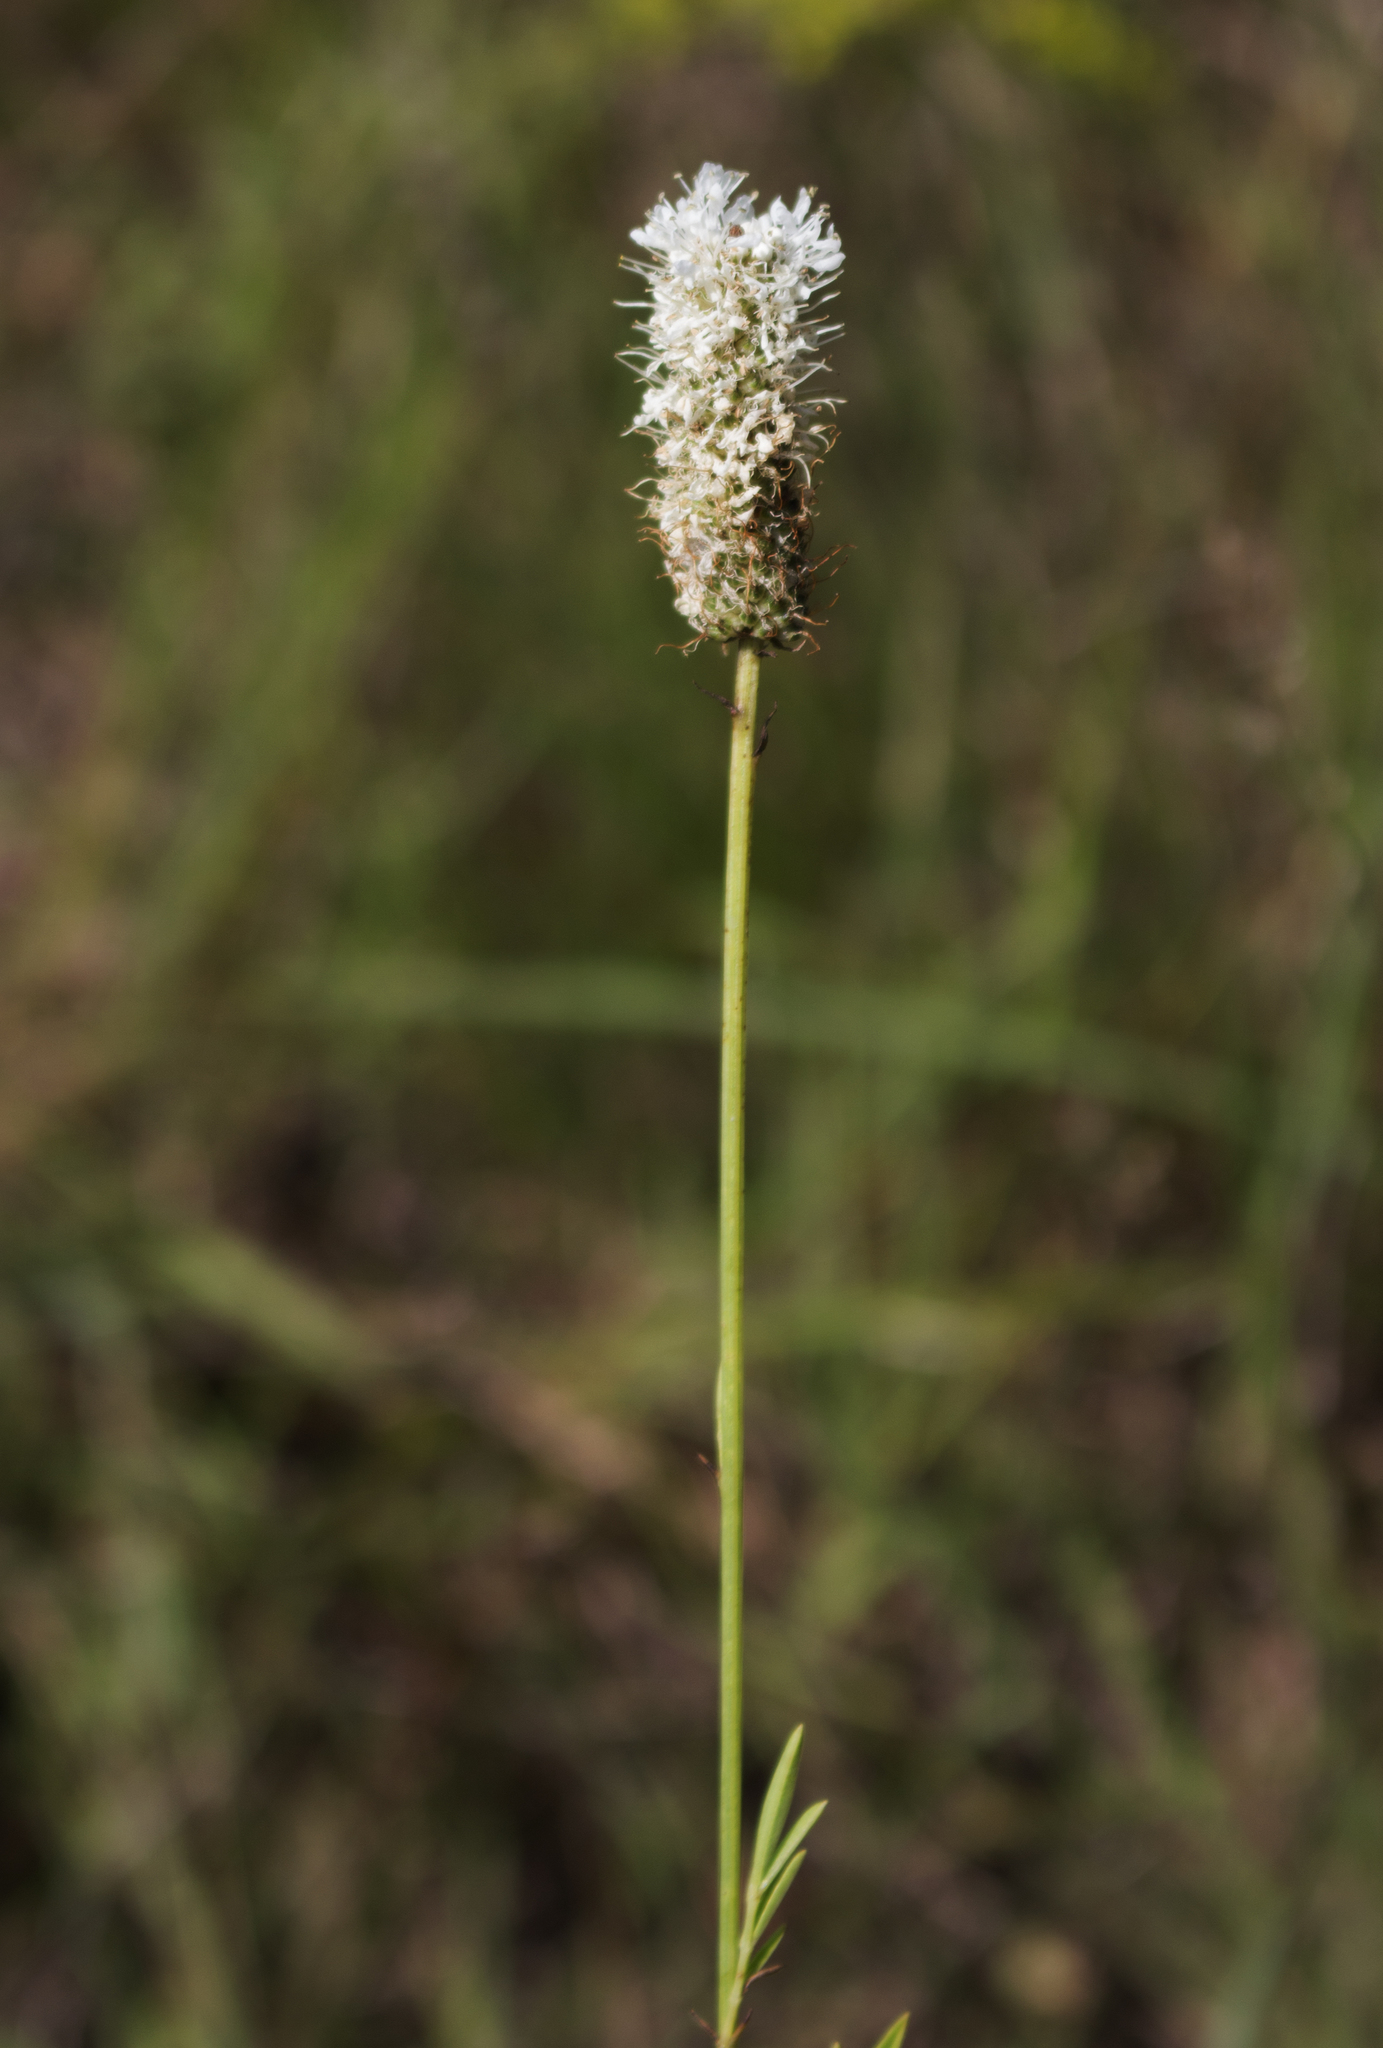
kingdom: Plantae
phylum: Tracheophyta
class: Magnoliopsida
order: Fabales
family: Fabaceae
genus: Dalea
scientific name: Dalea candida
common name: White prairie-clover
